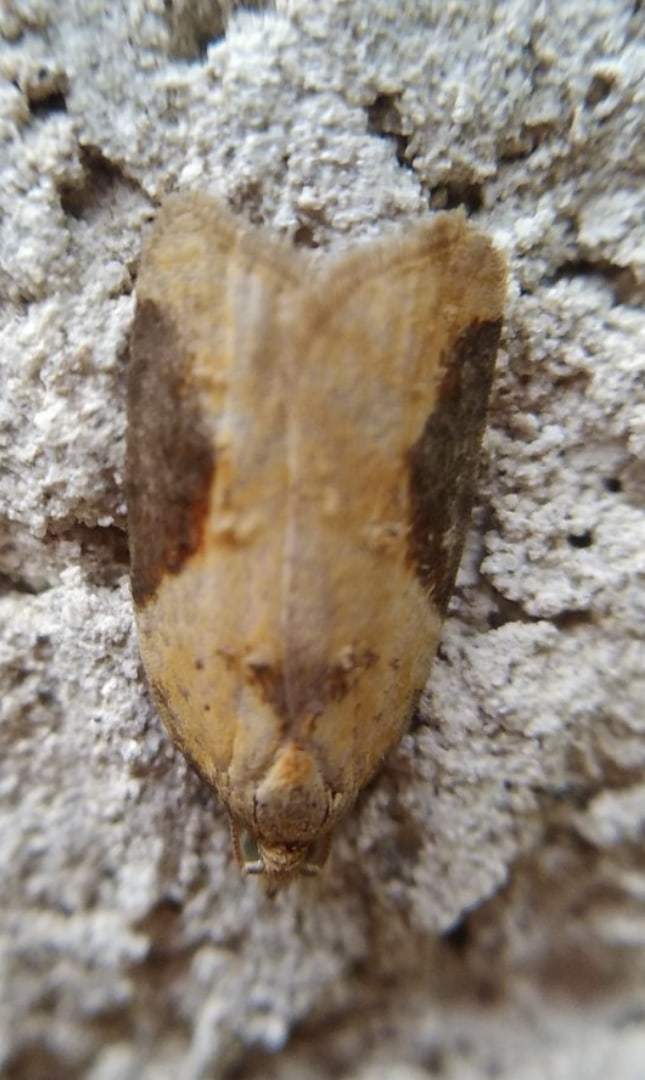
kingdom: Animalia
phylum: Arthropoda
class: Insecta
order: Lepidoptera
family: Tortricidae
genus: Acleris
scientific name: Acleris laterana
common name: Dark-triangle button
